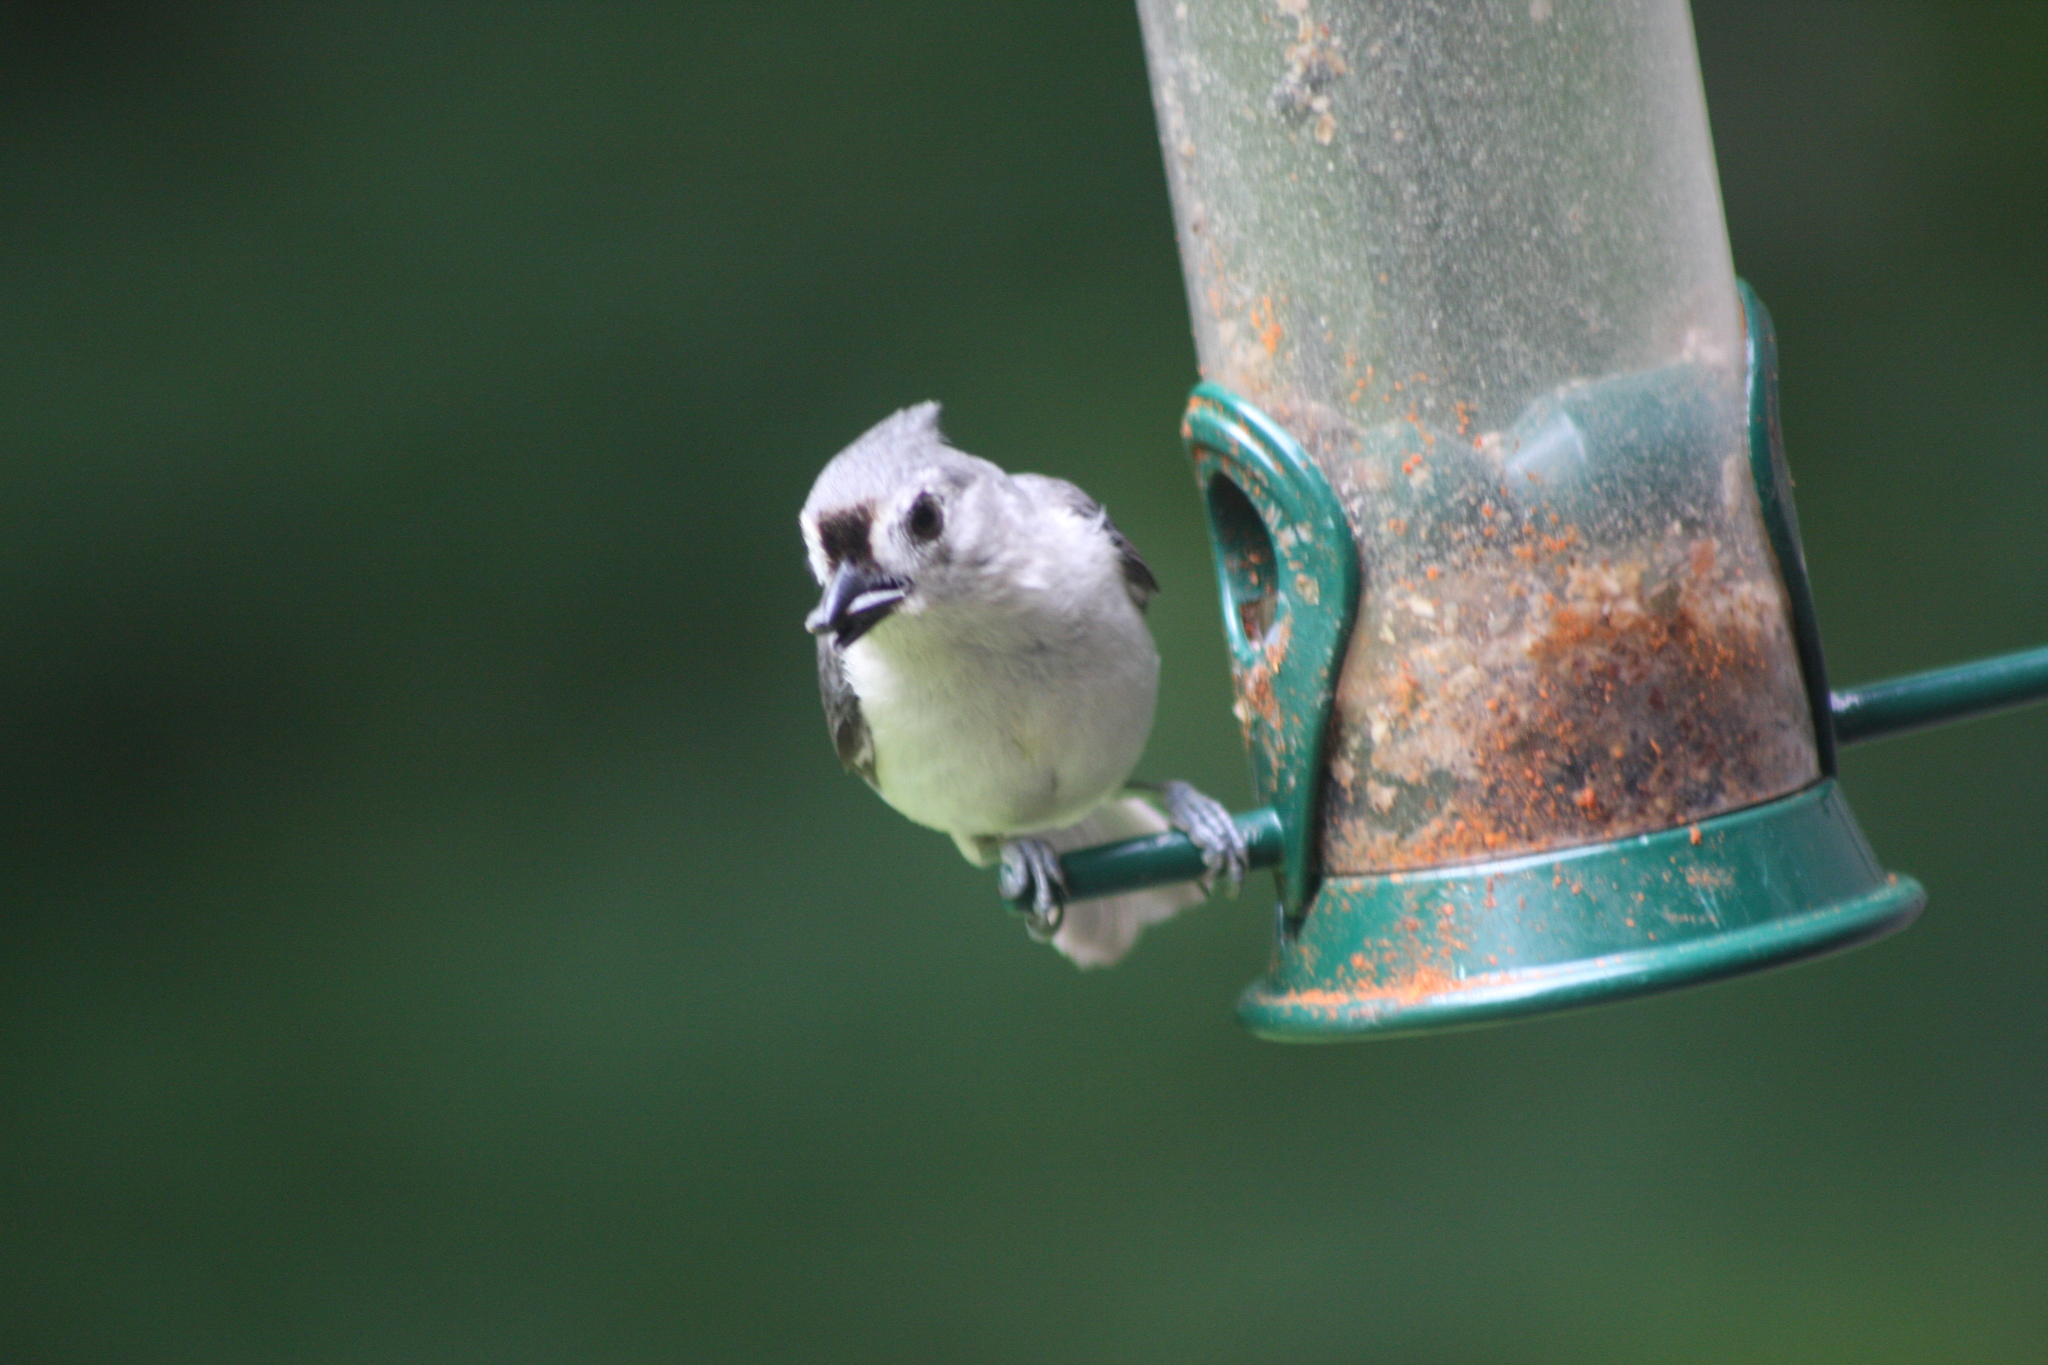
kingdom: Animalia
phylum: Chordata
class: Aves
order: Passeriformes
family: Paridae
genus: Baeolophus
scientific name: Baeolophus bicolor
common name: Tufted titmouse
